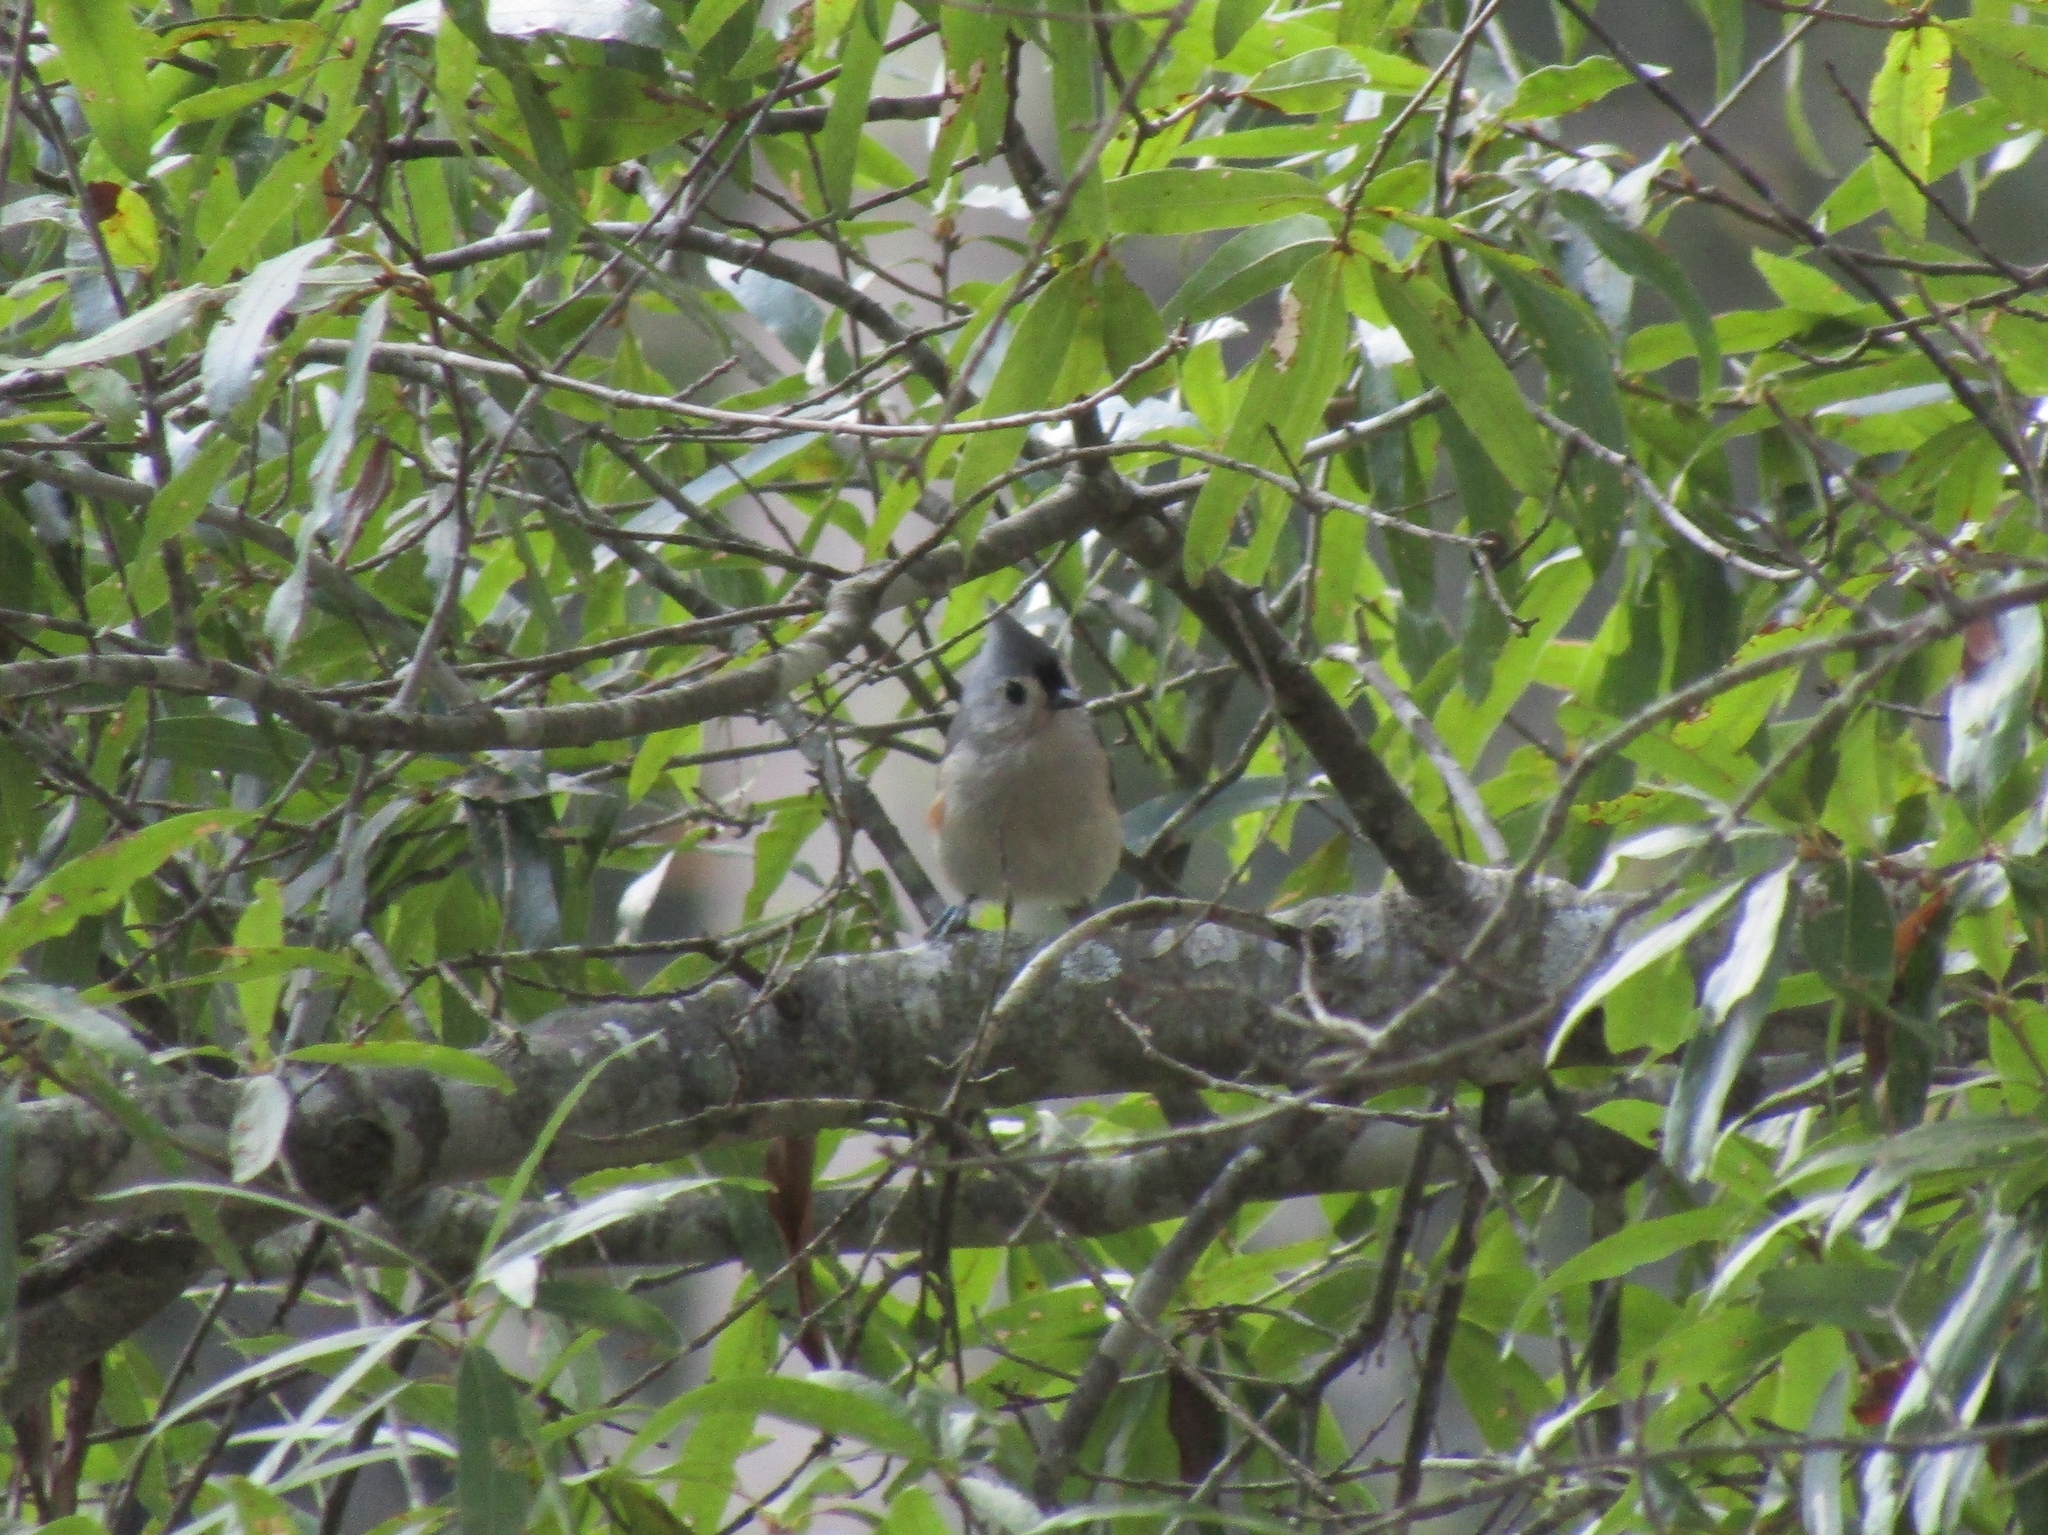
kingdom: Animalia
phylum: Chordata
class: Aves
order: Passeriformes
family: Paridae
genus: Baeolophus
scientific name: Baeolophus bicolor
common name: Tufted titmouse
